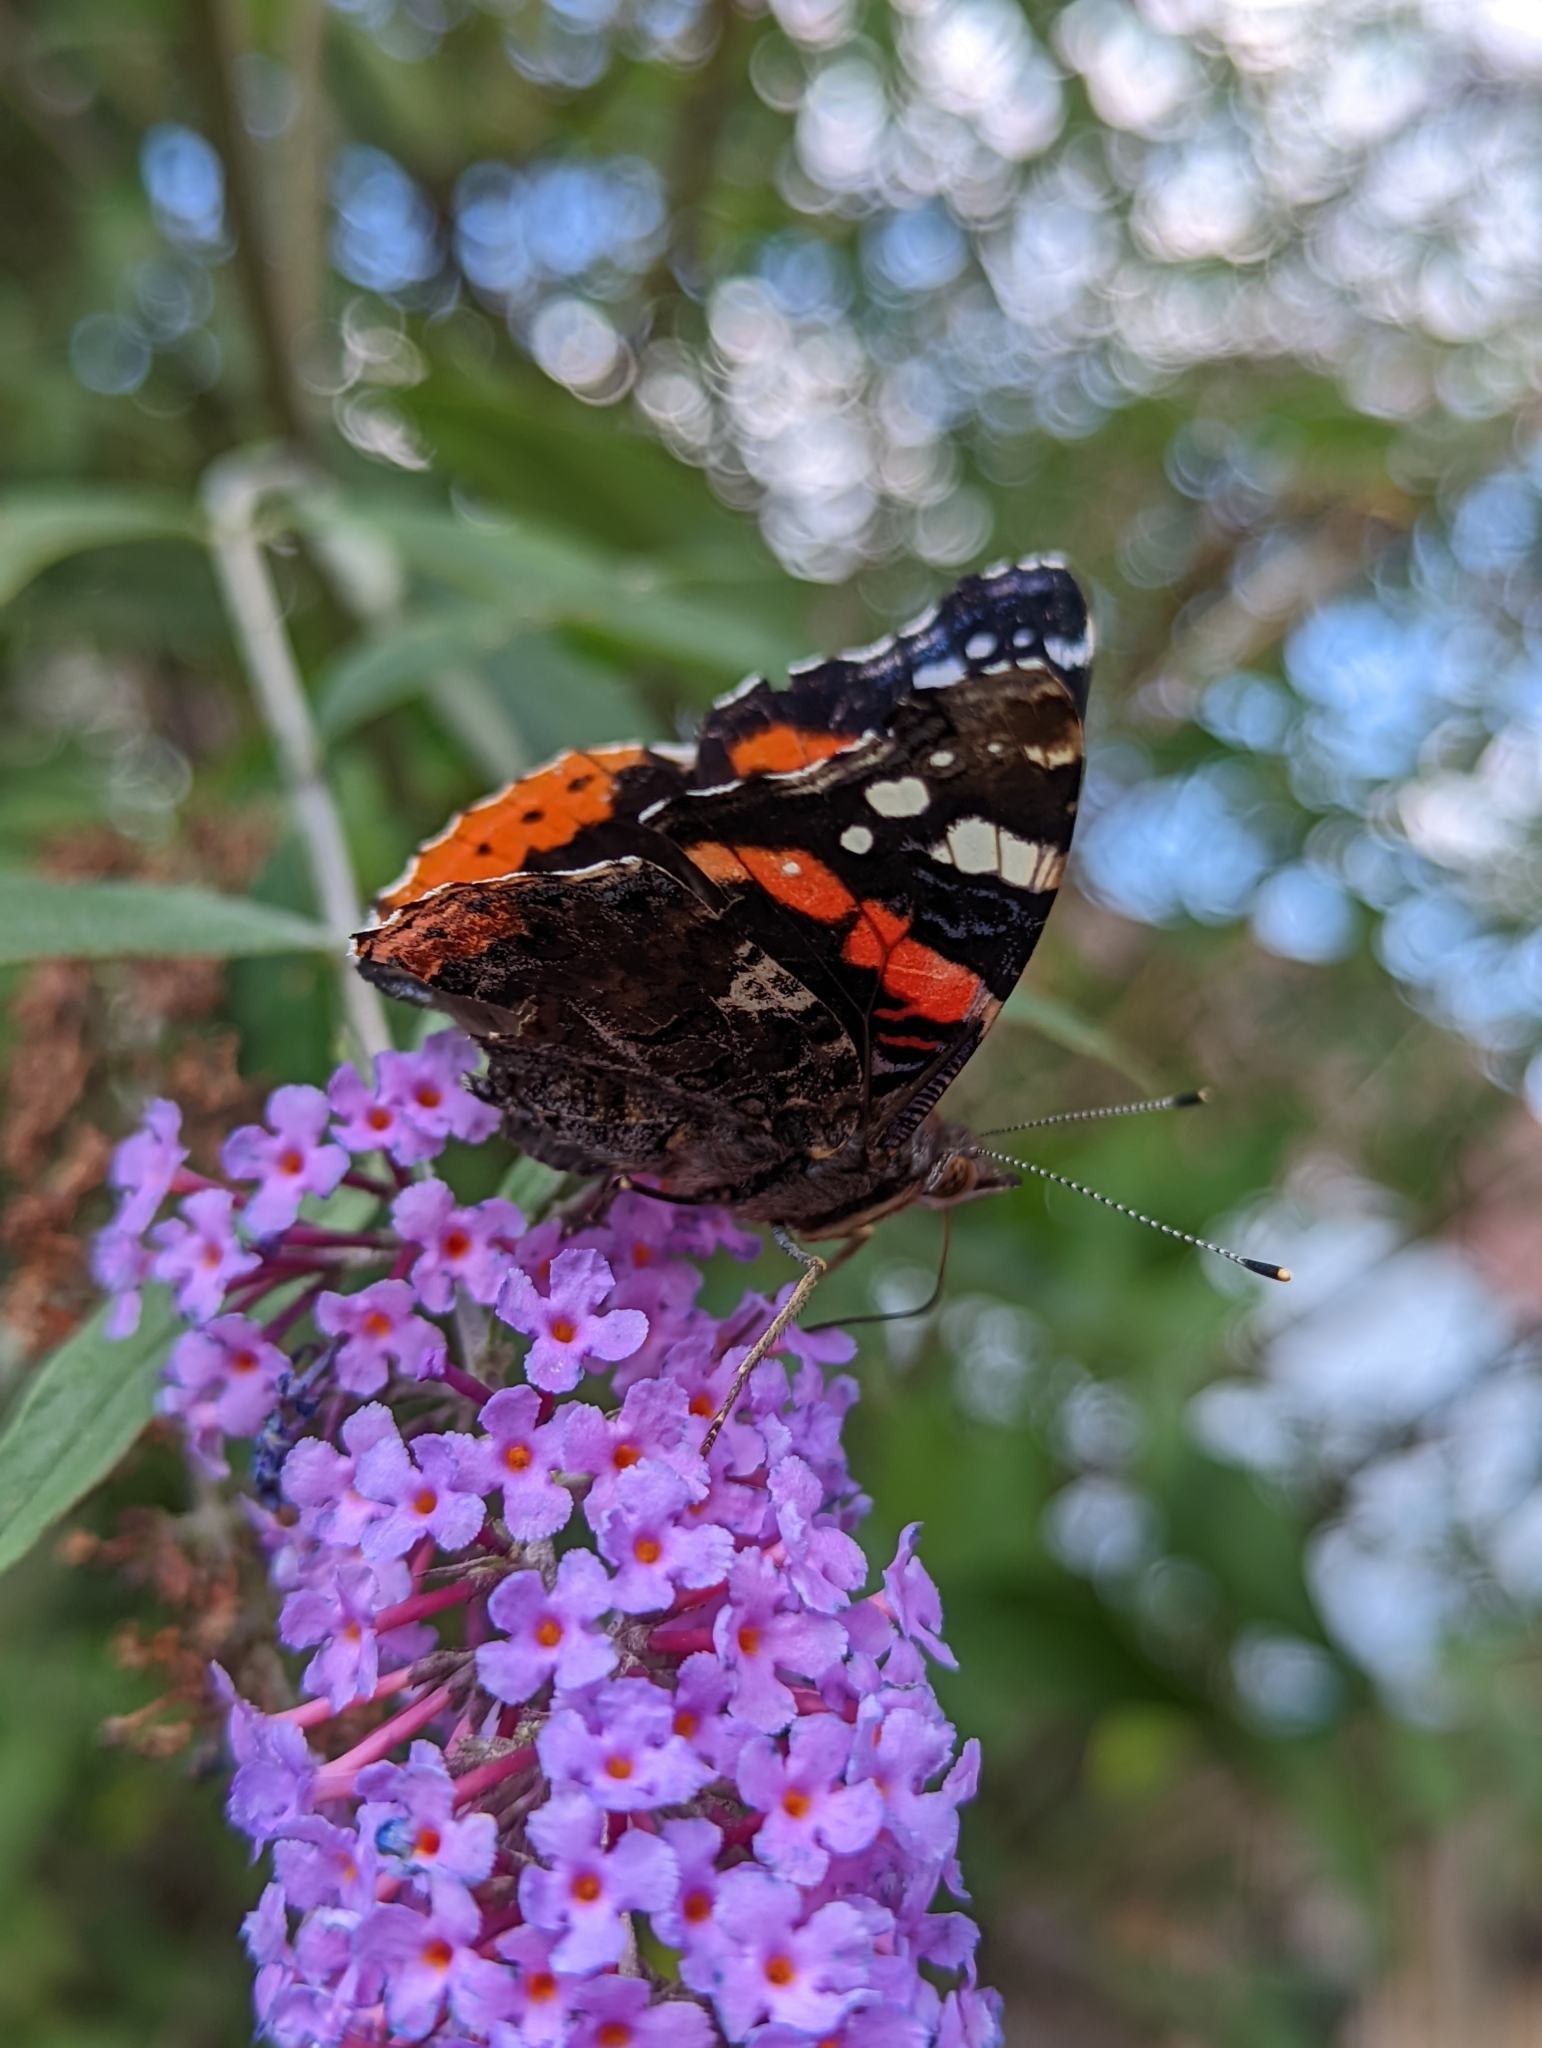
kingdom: Animalia
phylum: Arthropoda
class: Insecta
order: Lepidoptera
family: Nymphalidae
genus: Vanessa
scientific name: Vanessa atalanta
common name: Red admiral
